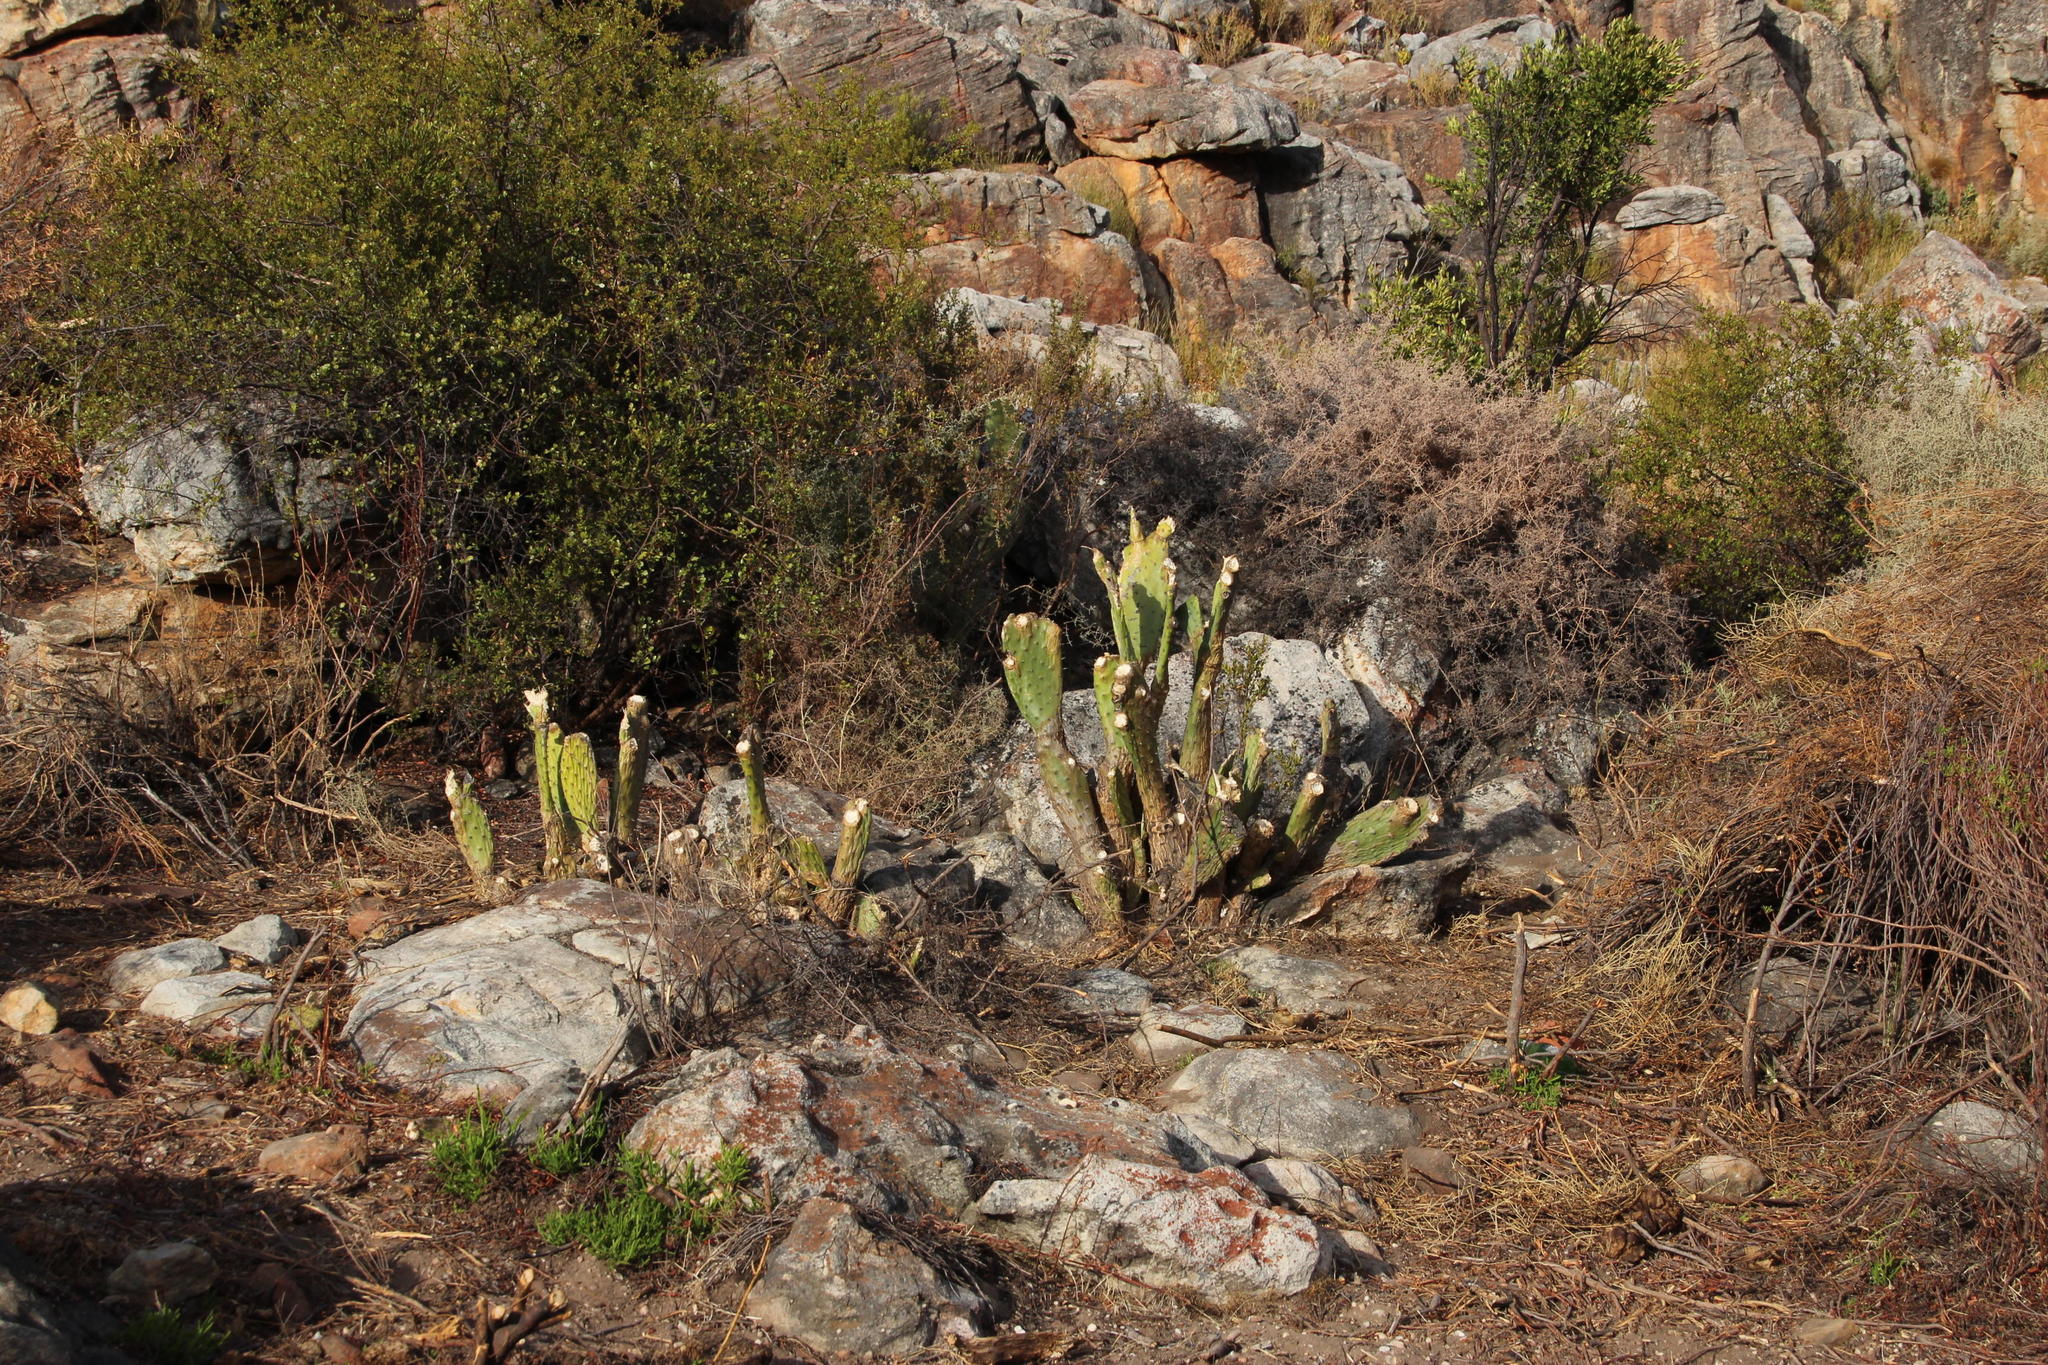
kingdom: Plantae
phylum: Tracheophyta
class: Magnoliopsida
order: Caryophyllales
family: Cactaceae
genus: Opuntia
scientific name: Opuntia ficus-indica
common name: Barbary fig
